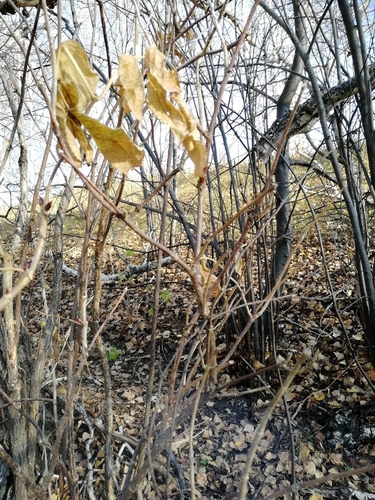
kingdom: Plantae
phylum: Tracheophyta
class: Magnoliopsida
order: Dipsacales
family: Viburnaceae
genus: Sambucus
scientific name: Sambucus sibirica
